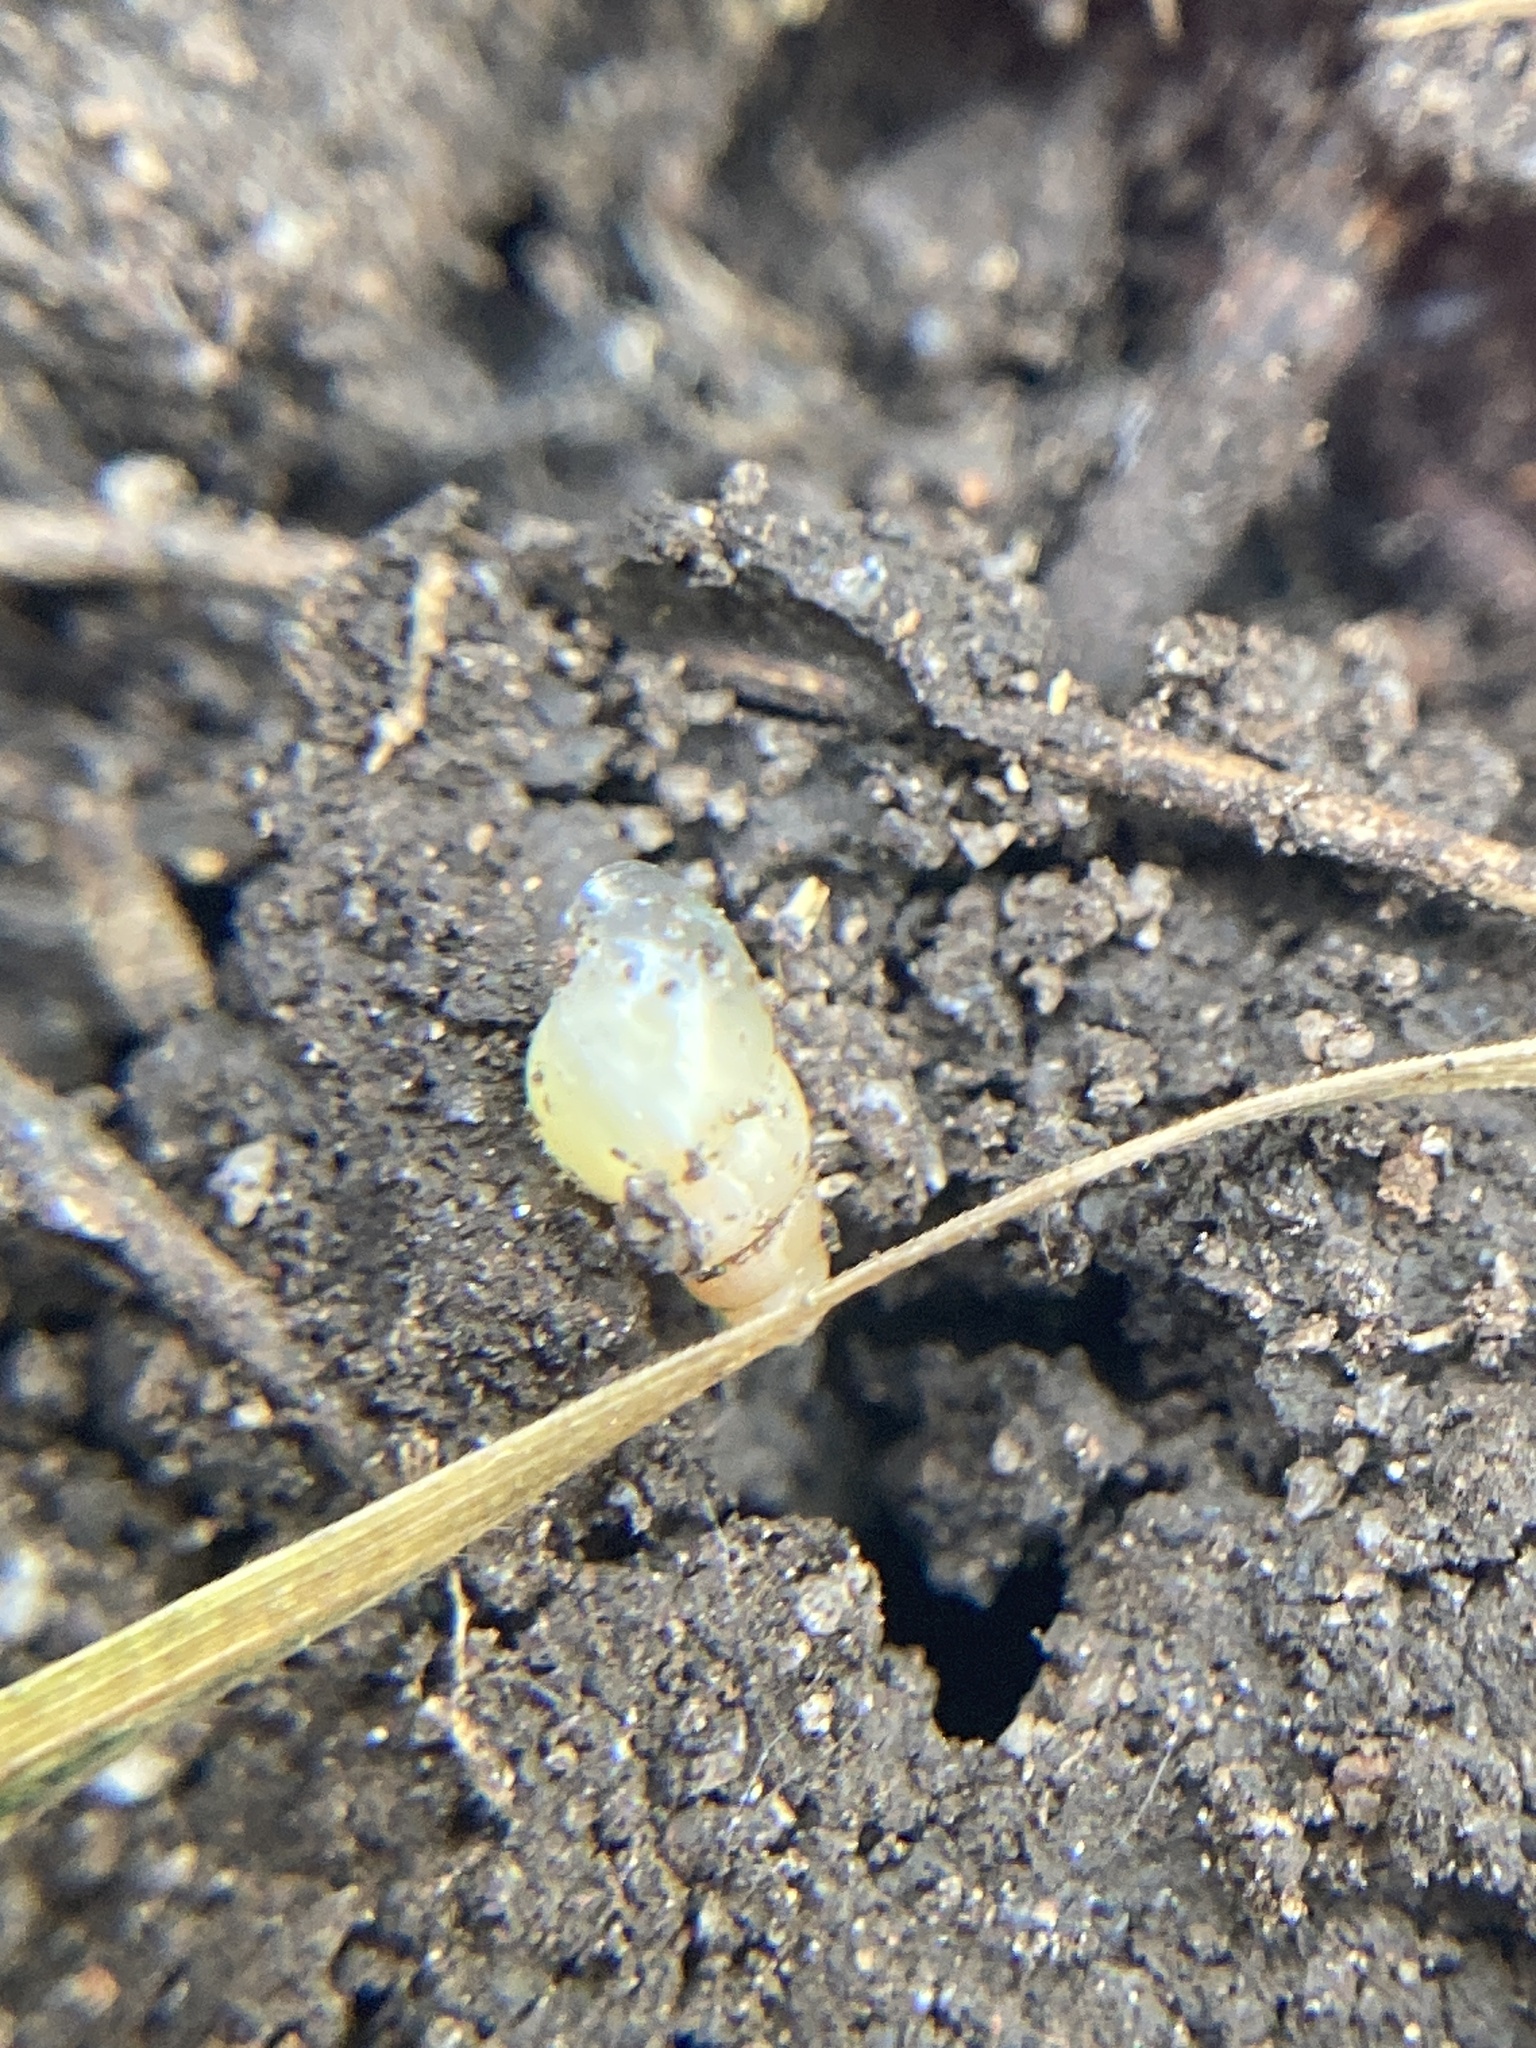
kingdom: Animalia
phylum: Mollusca
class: Gastropoda
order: Stylommatophora
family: Achatinidae
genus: Allopeas
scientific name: Allopeas clavulinum
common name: Spike awlsnail
